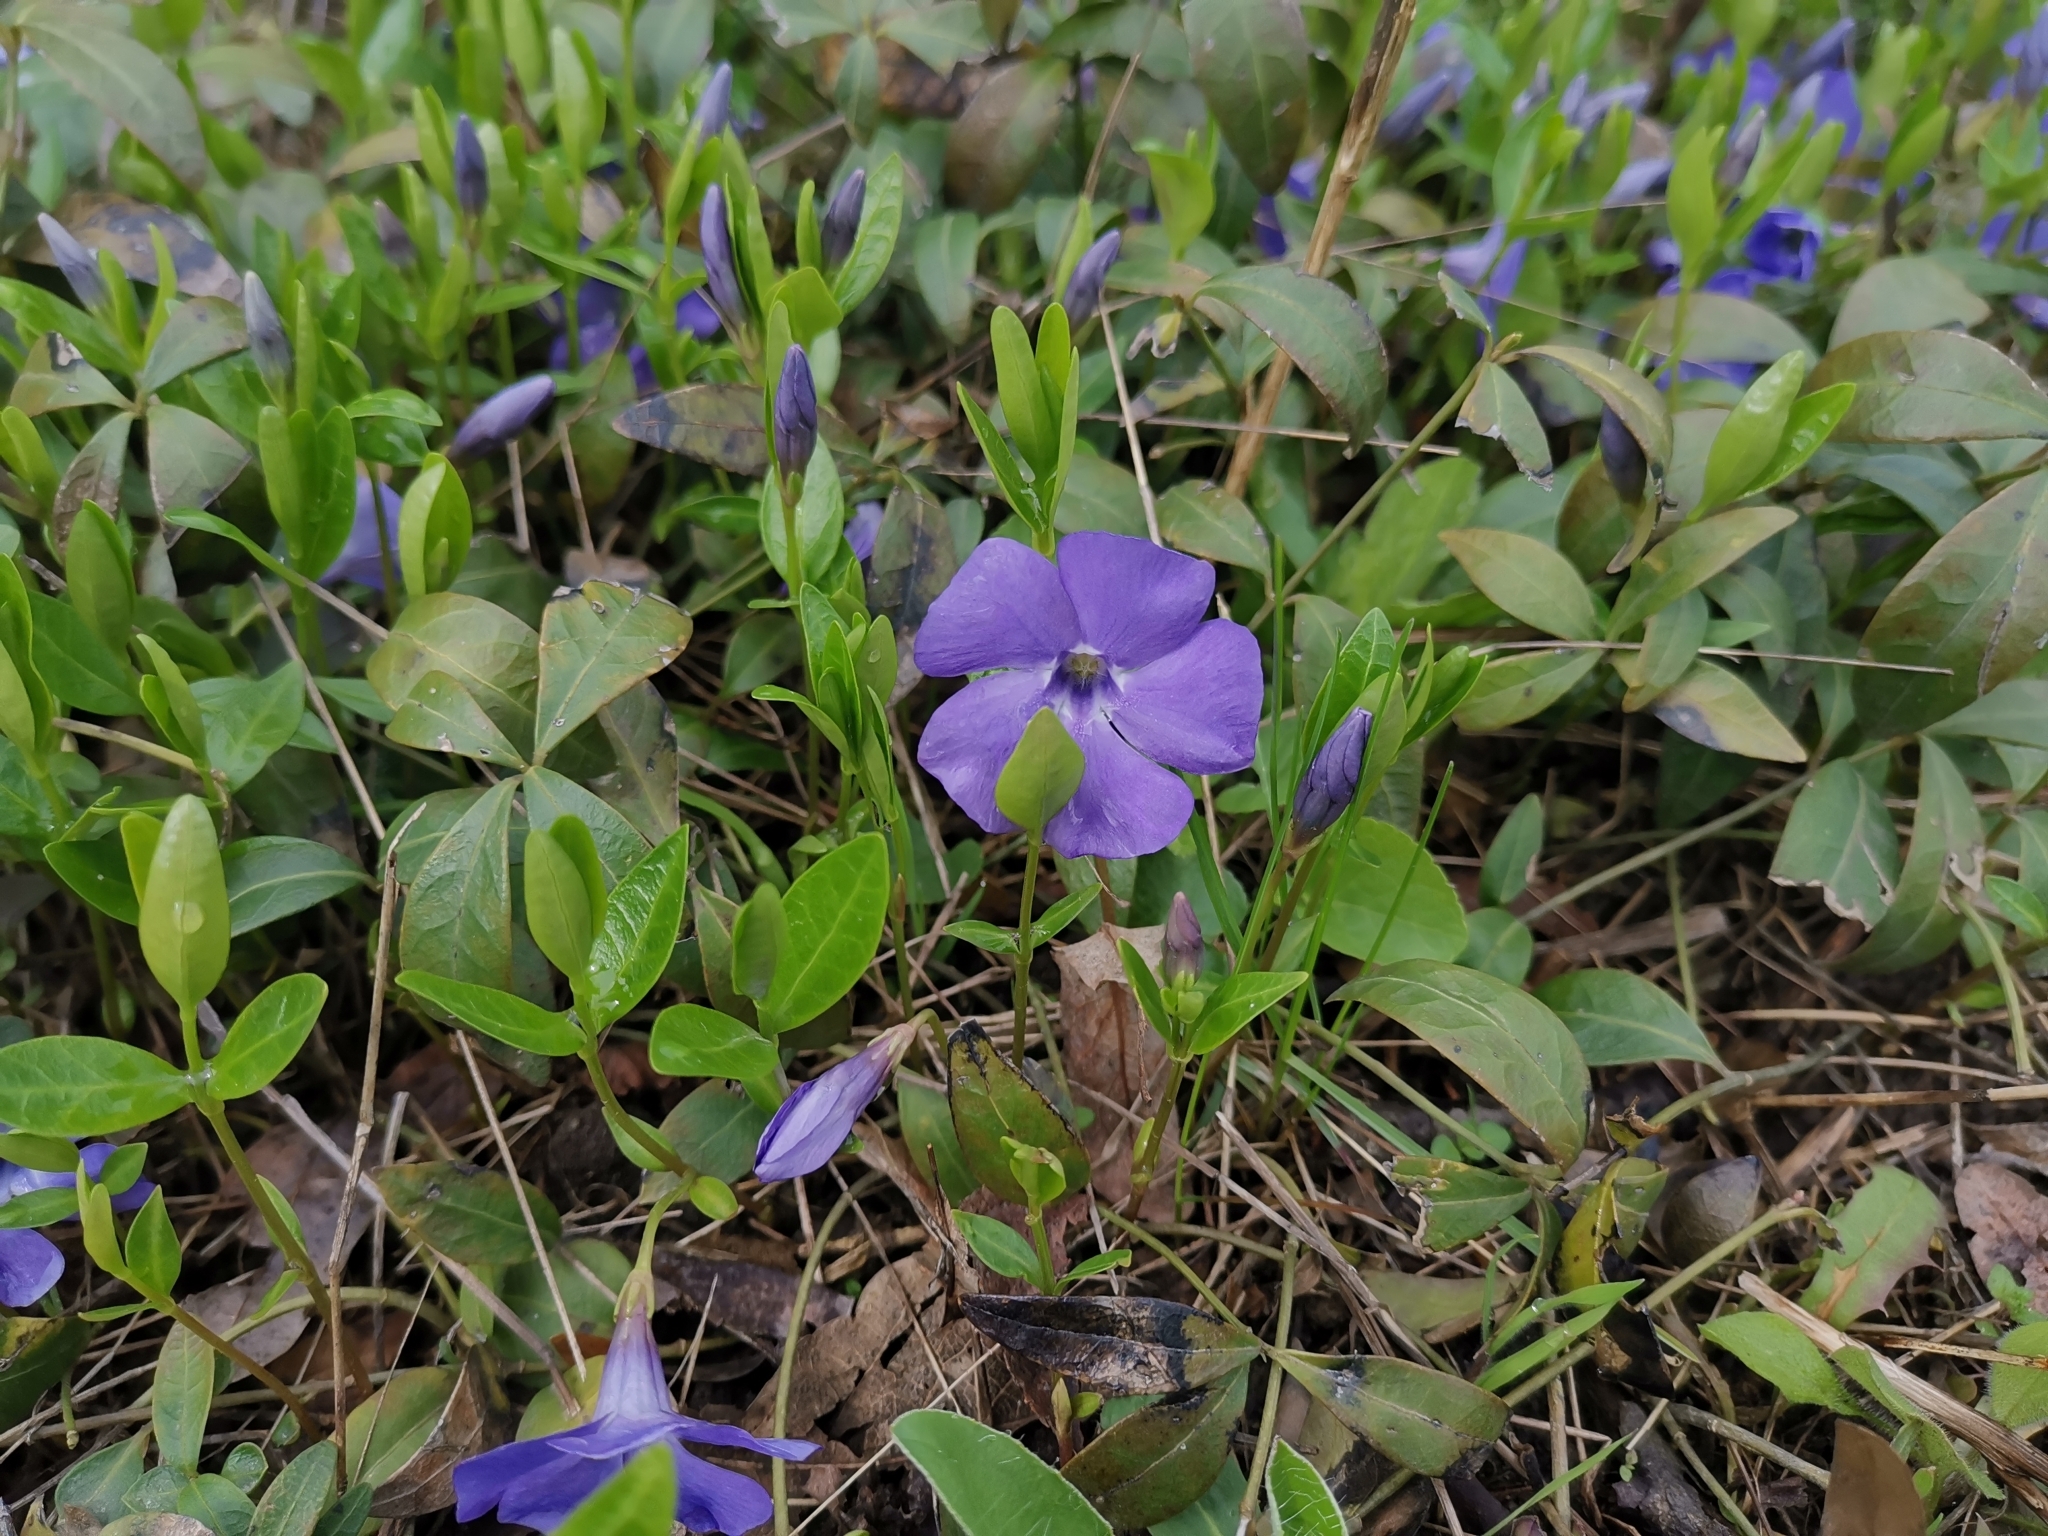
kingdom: Plantae
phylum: Tracheophyta
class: Magnoliopsida
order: Gentianales
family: Apocynaceae
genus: Vinca
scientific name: Vinca minor
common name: Lesser periwinkle
